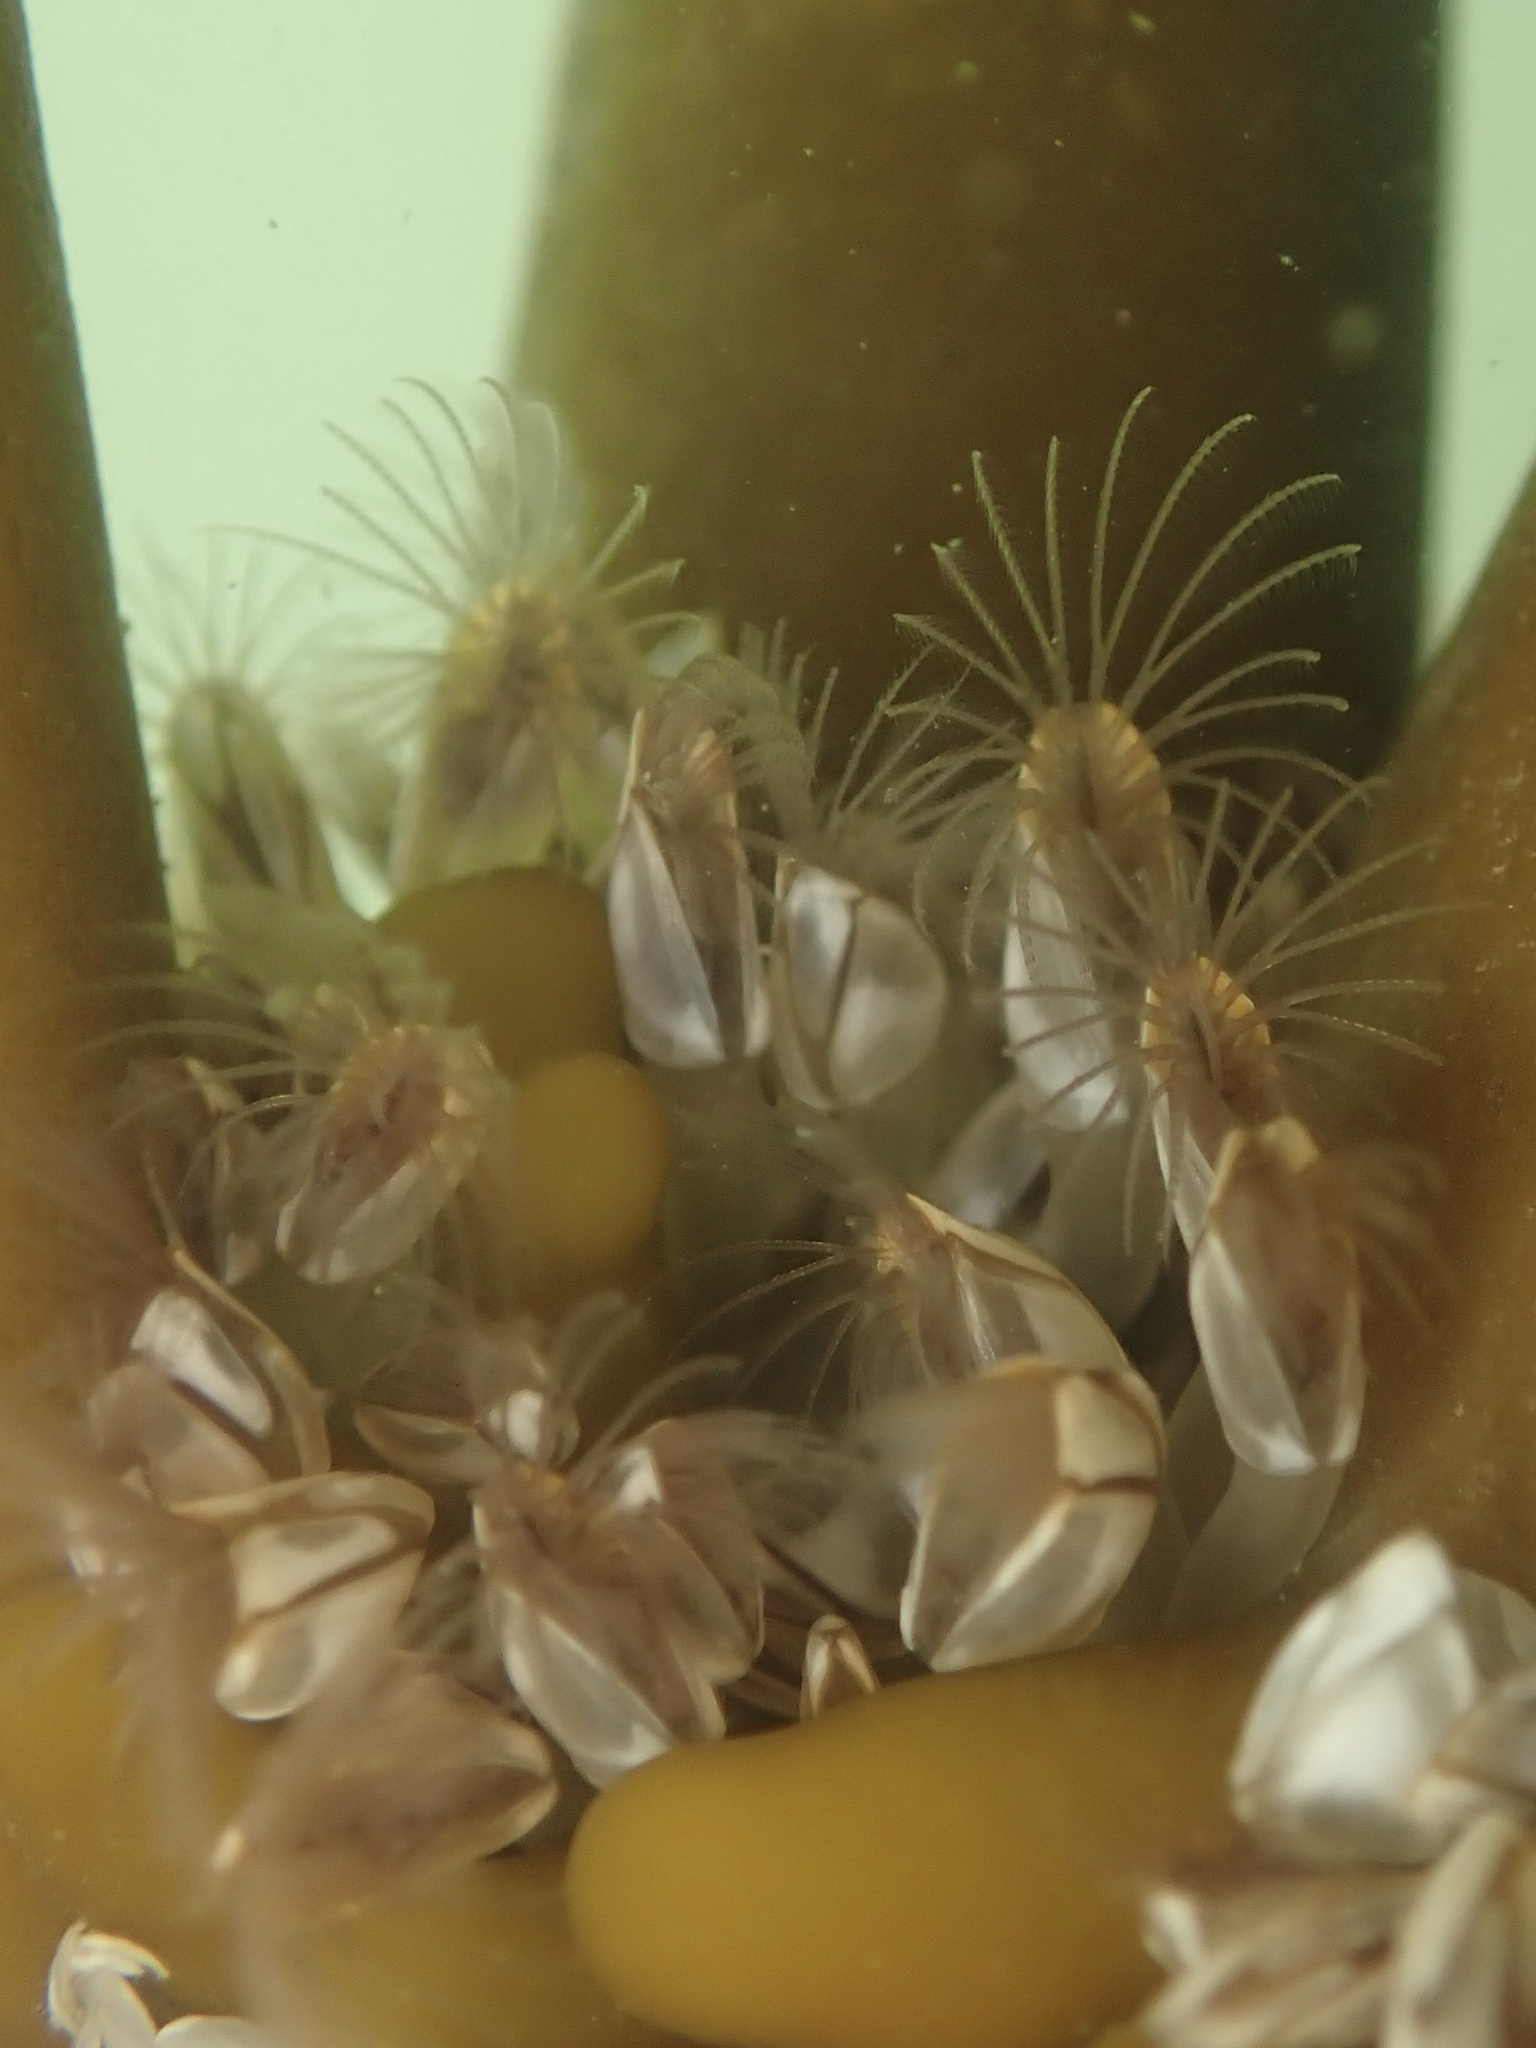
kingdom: Animalia
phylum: Arthropoda
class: Maxillopoda
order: Pedunculata
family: Lepadidae
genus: Lepas
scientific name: Lepas pacifica
